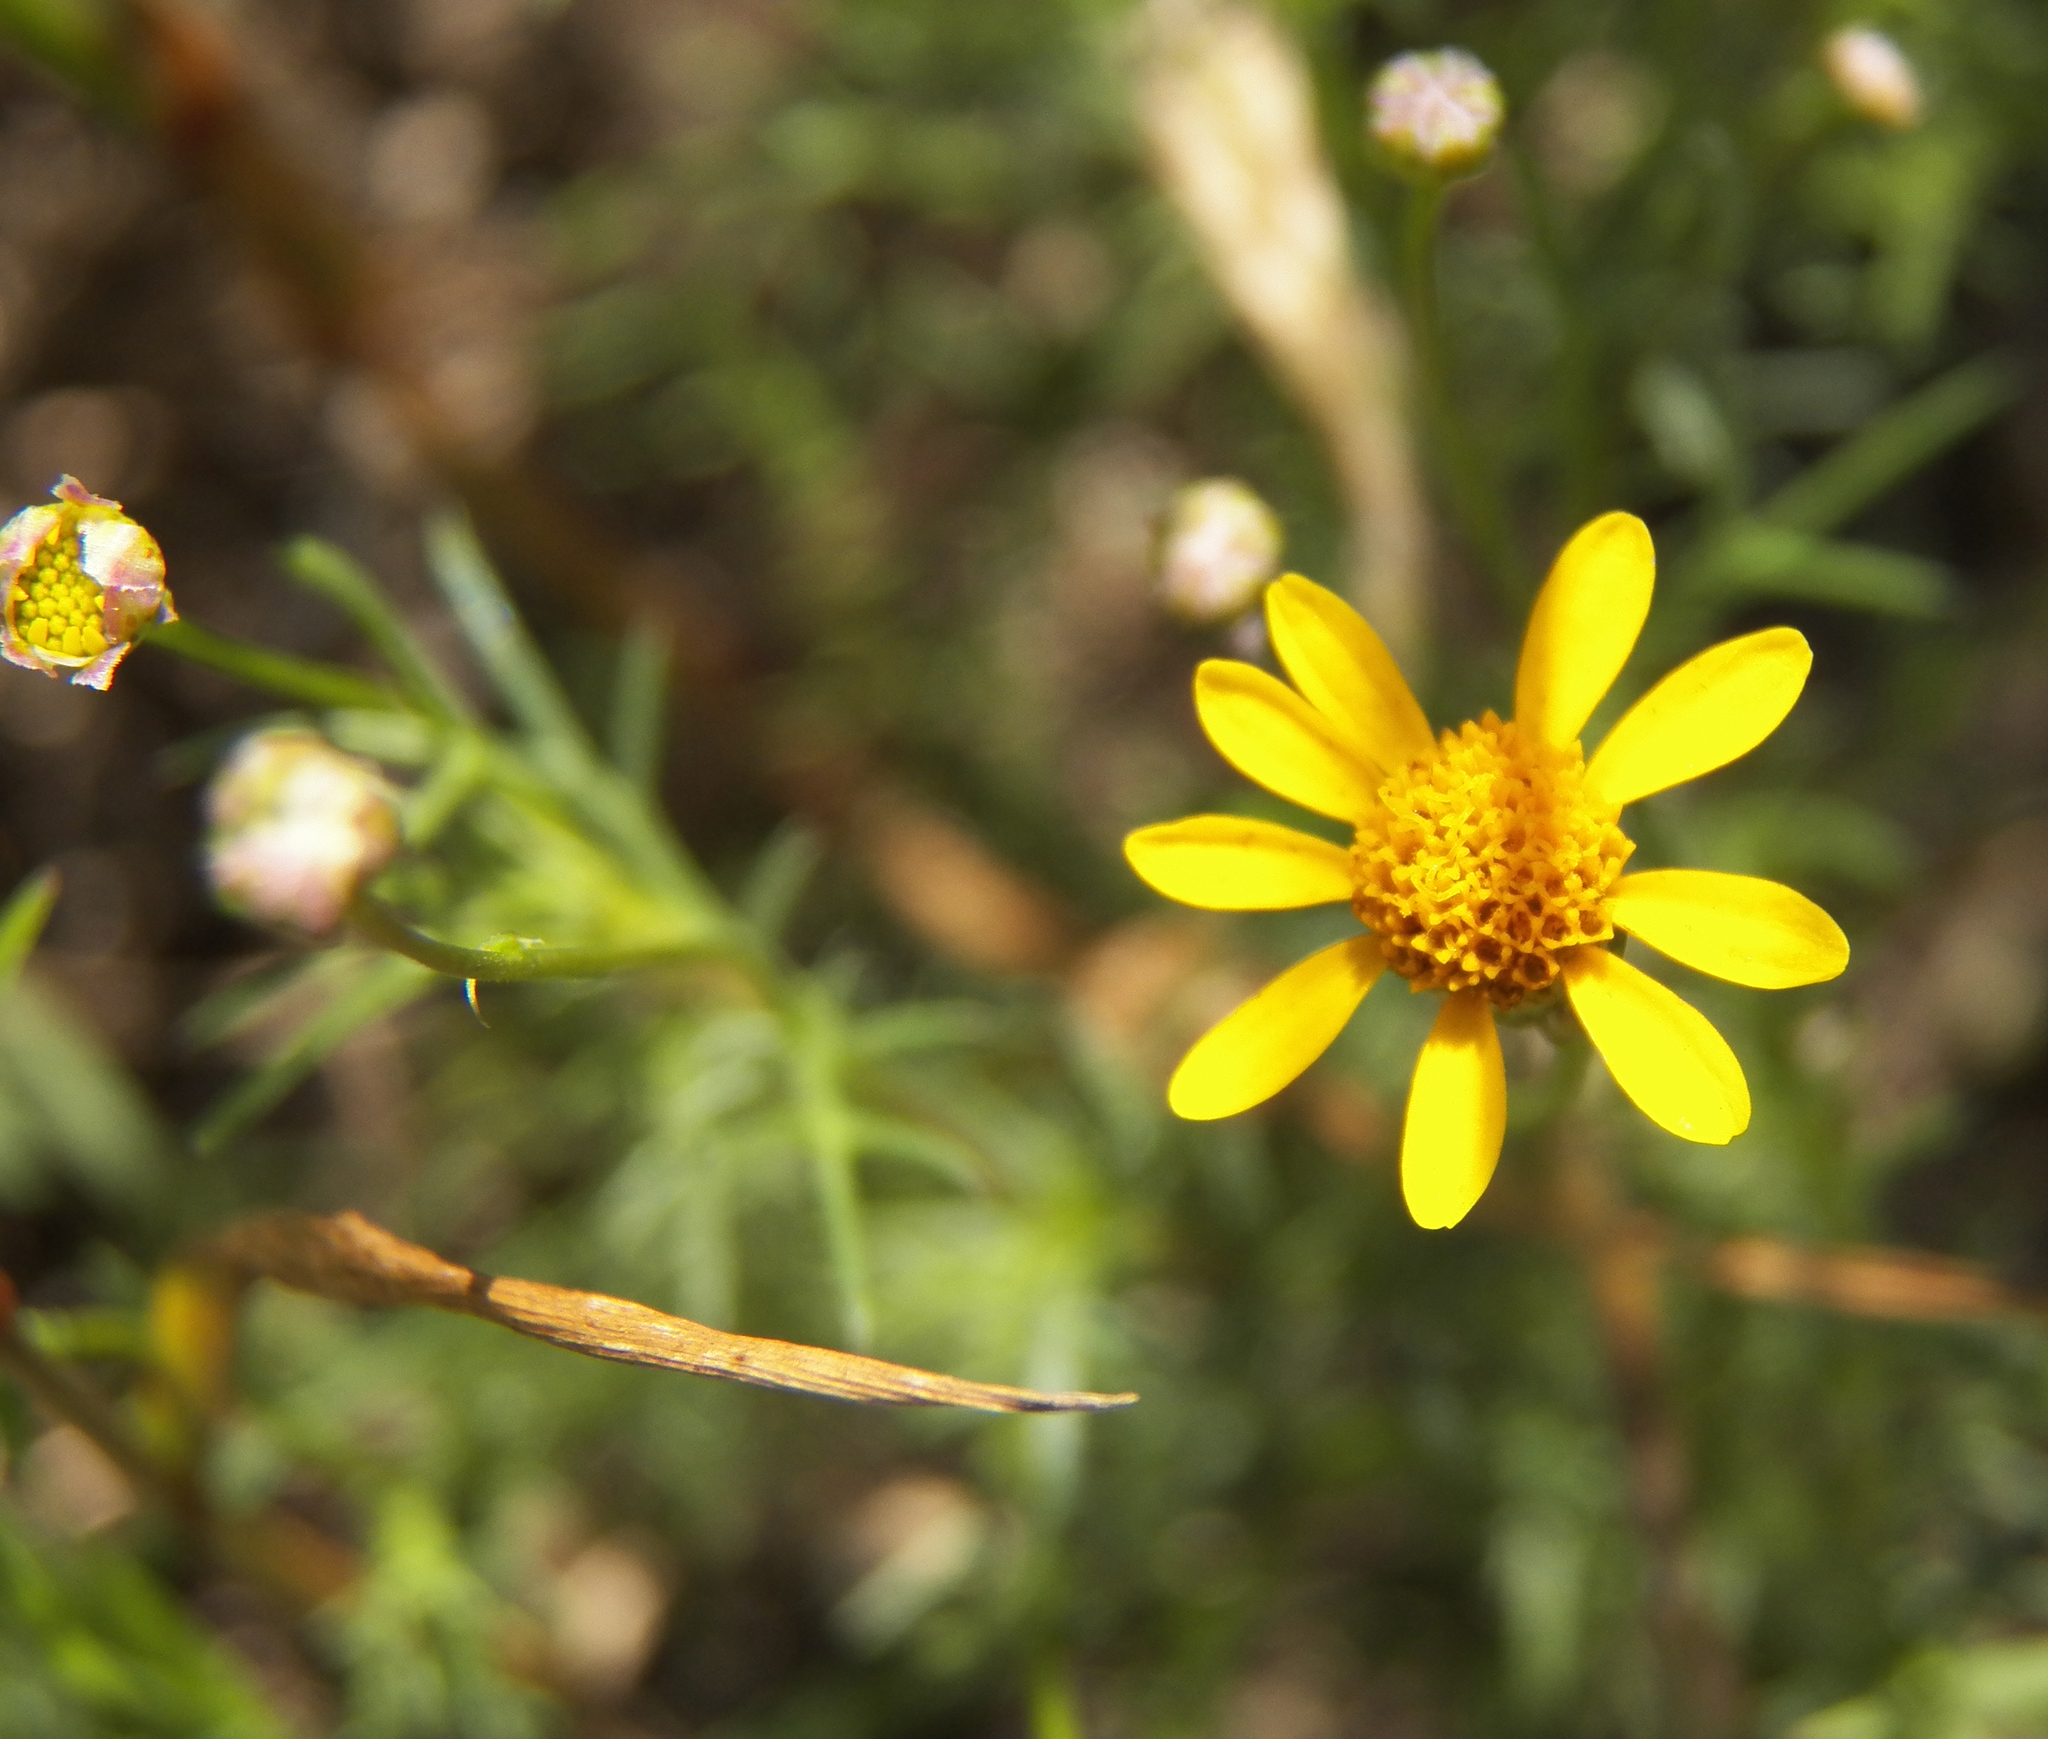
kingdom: Plantae
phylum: Tracheophyta
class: Magnoliopsida
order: Asterales
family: Asteraceae
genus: Thymophylla
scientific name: Thymophylla tenuiloba
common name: Dahlberg's daisy
